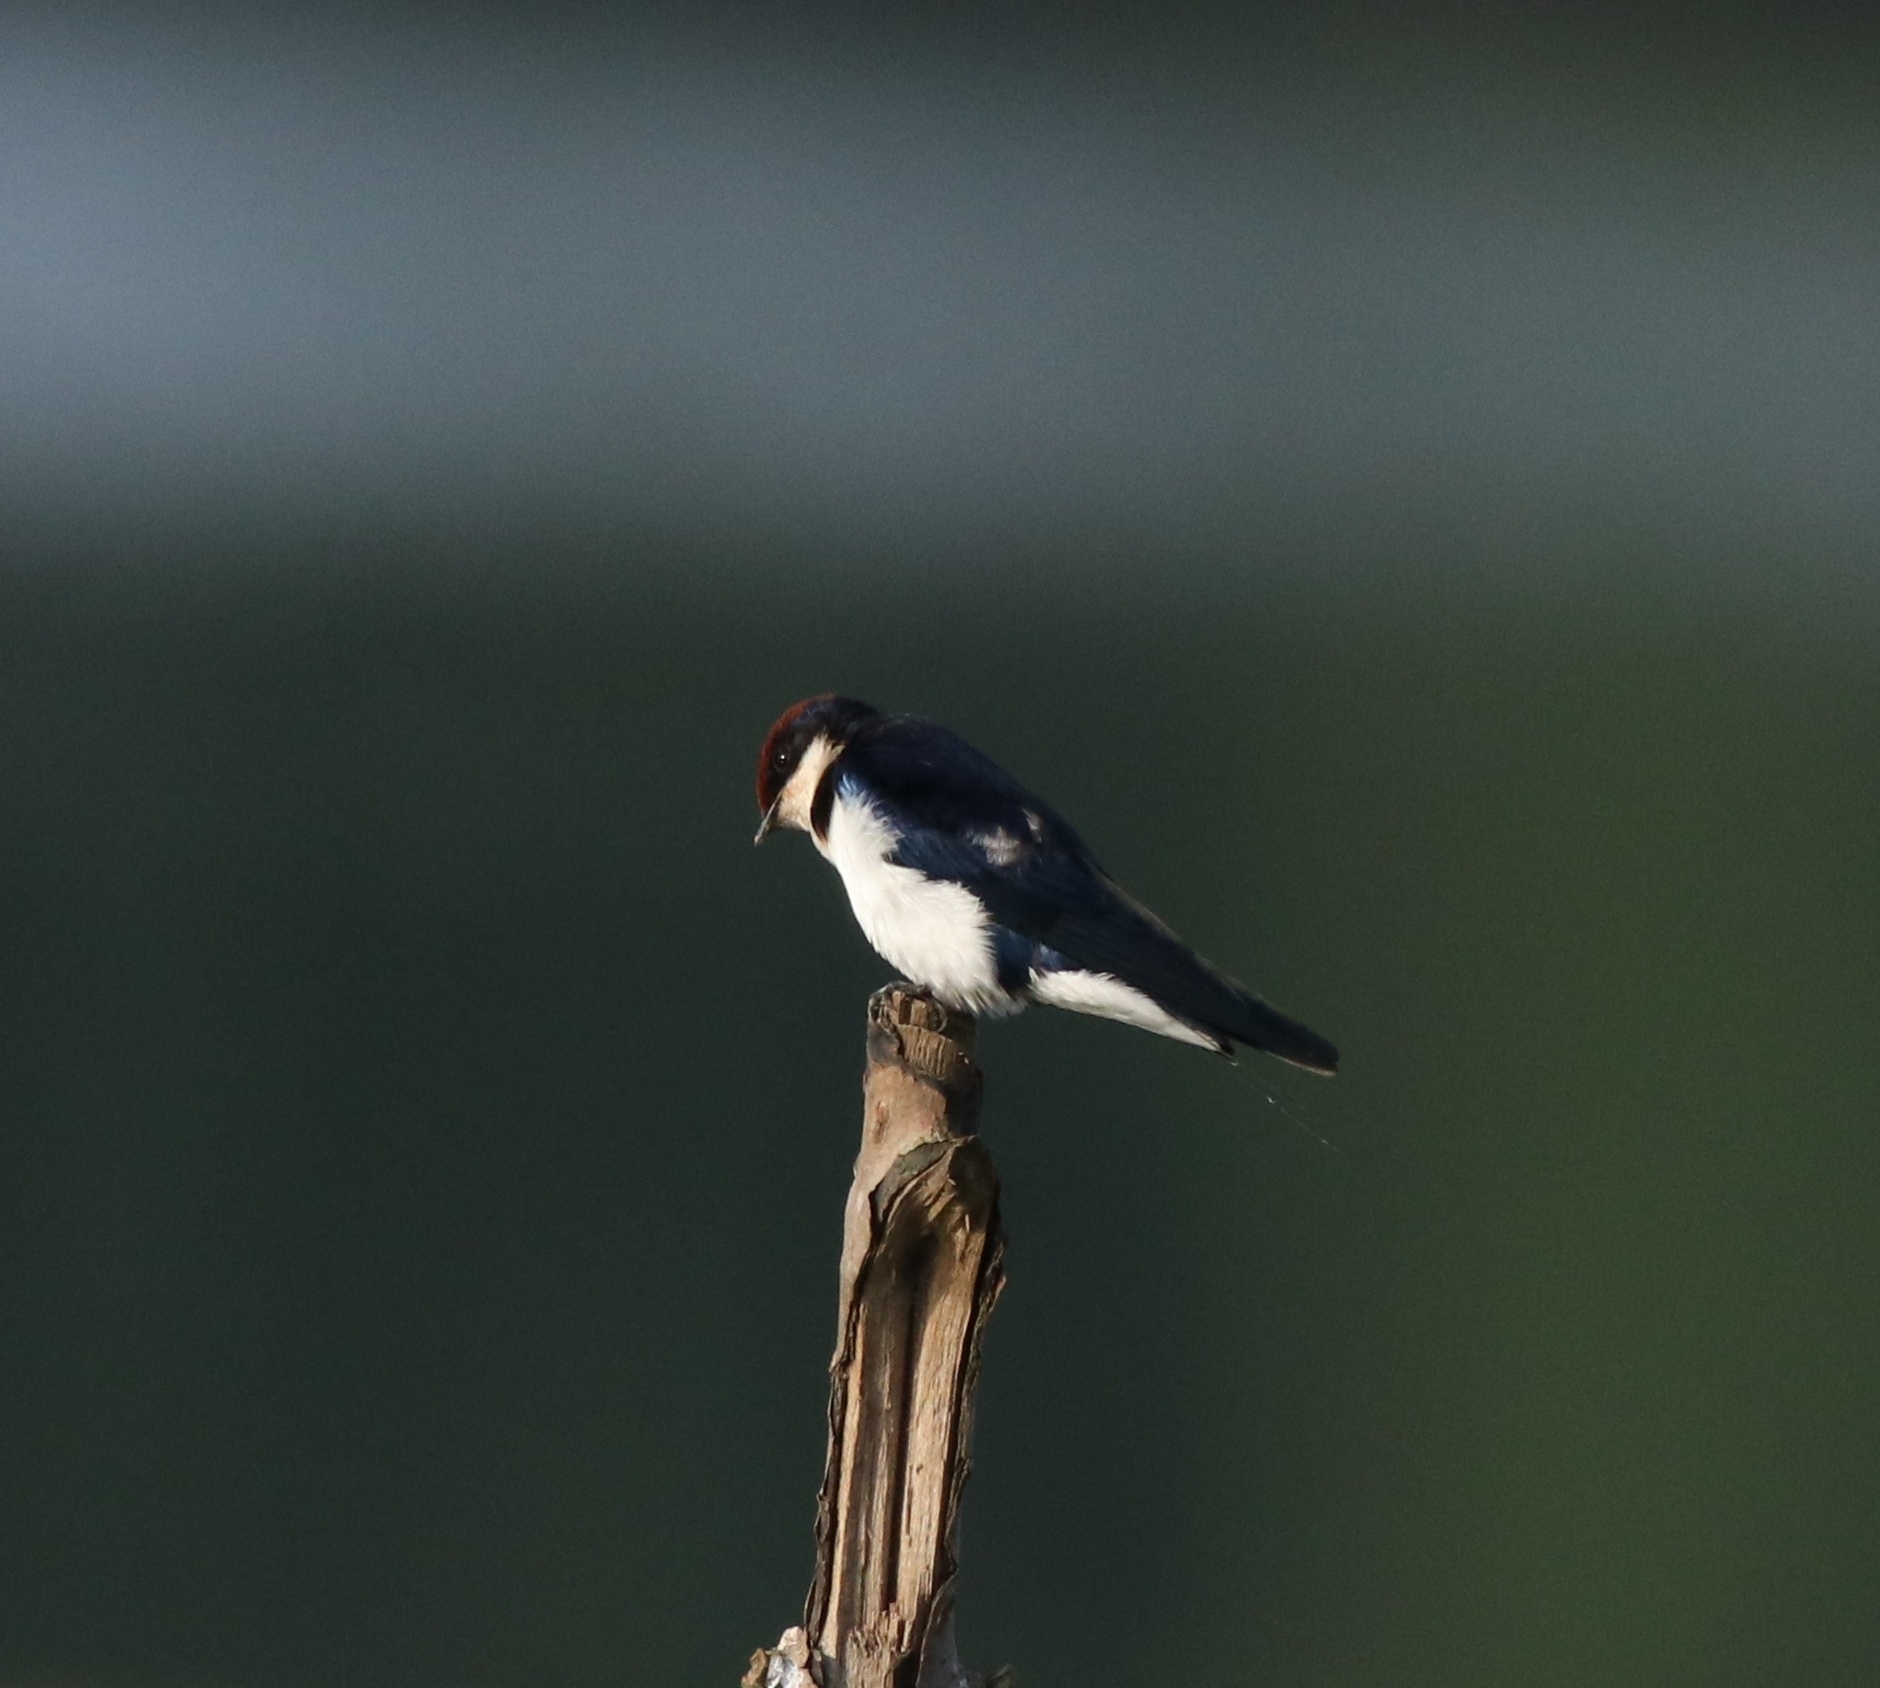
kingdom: Animalia
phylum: Chordata
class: Aves
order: Passeriformes
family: Hirundinidae
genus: Hirundo
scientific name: Hirundo smithii
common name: Wire-tailed swallow
